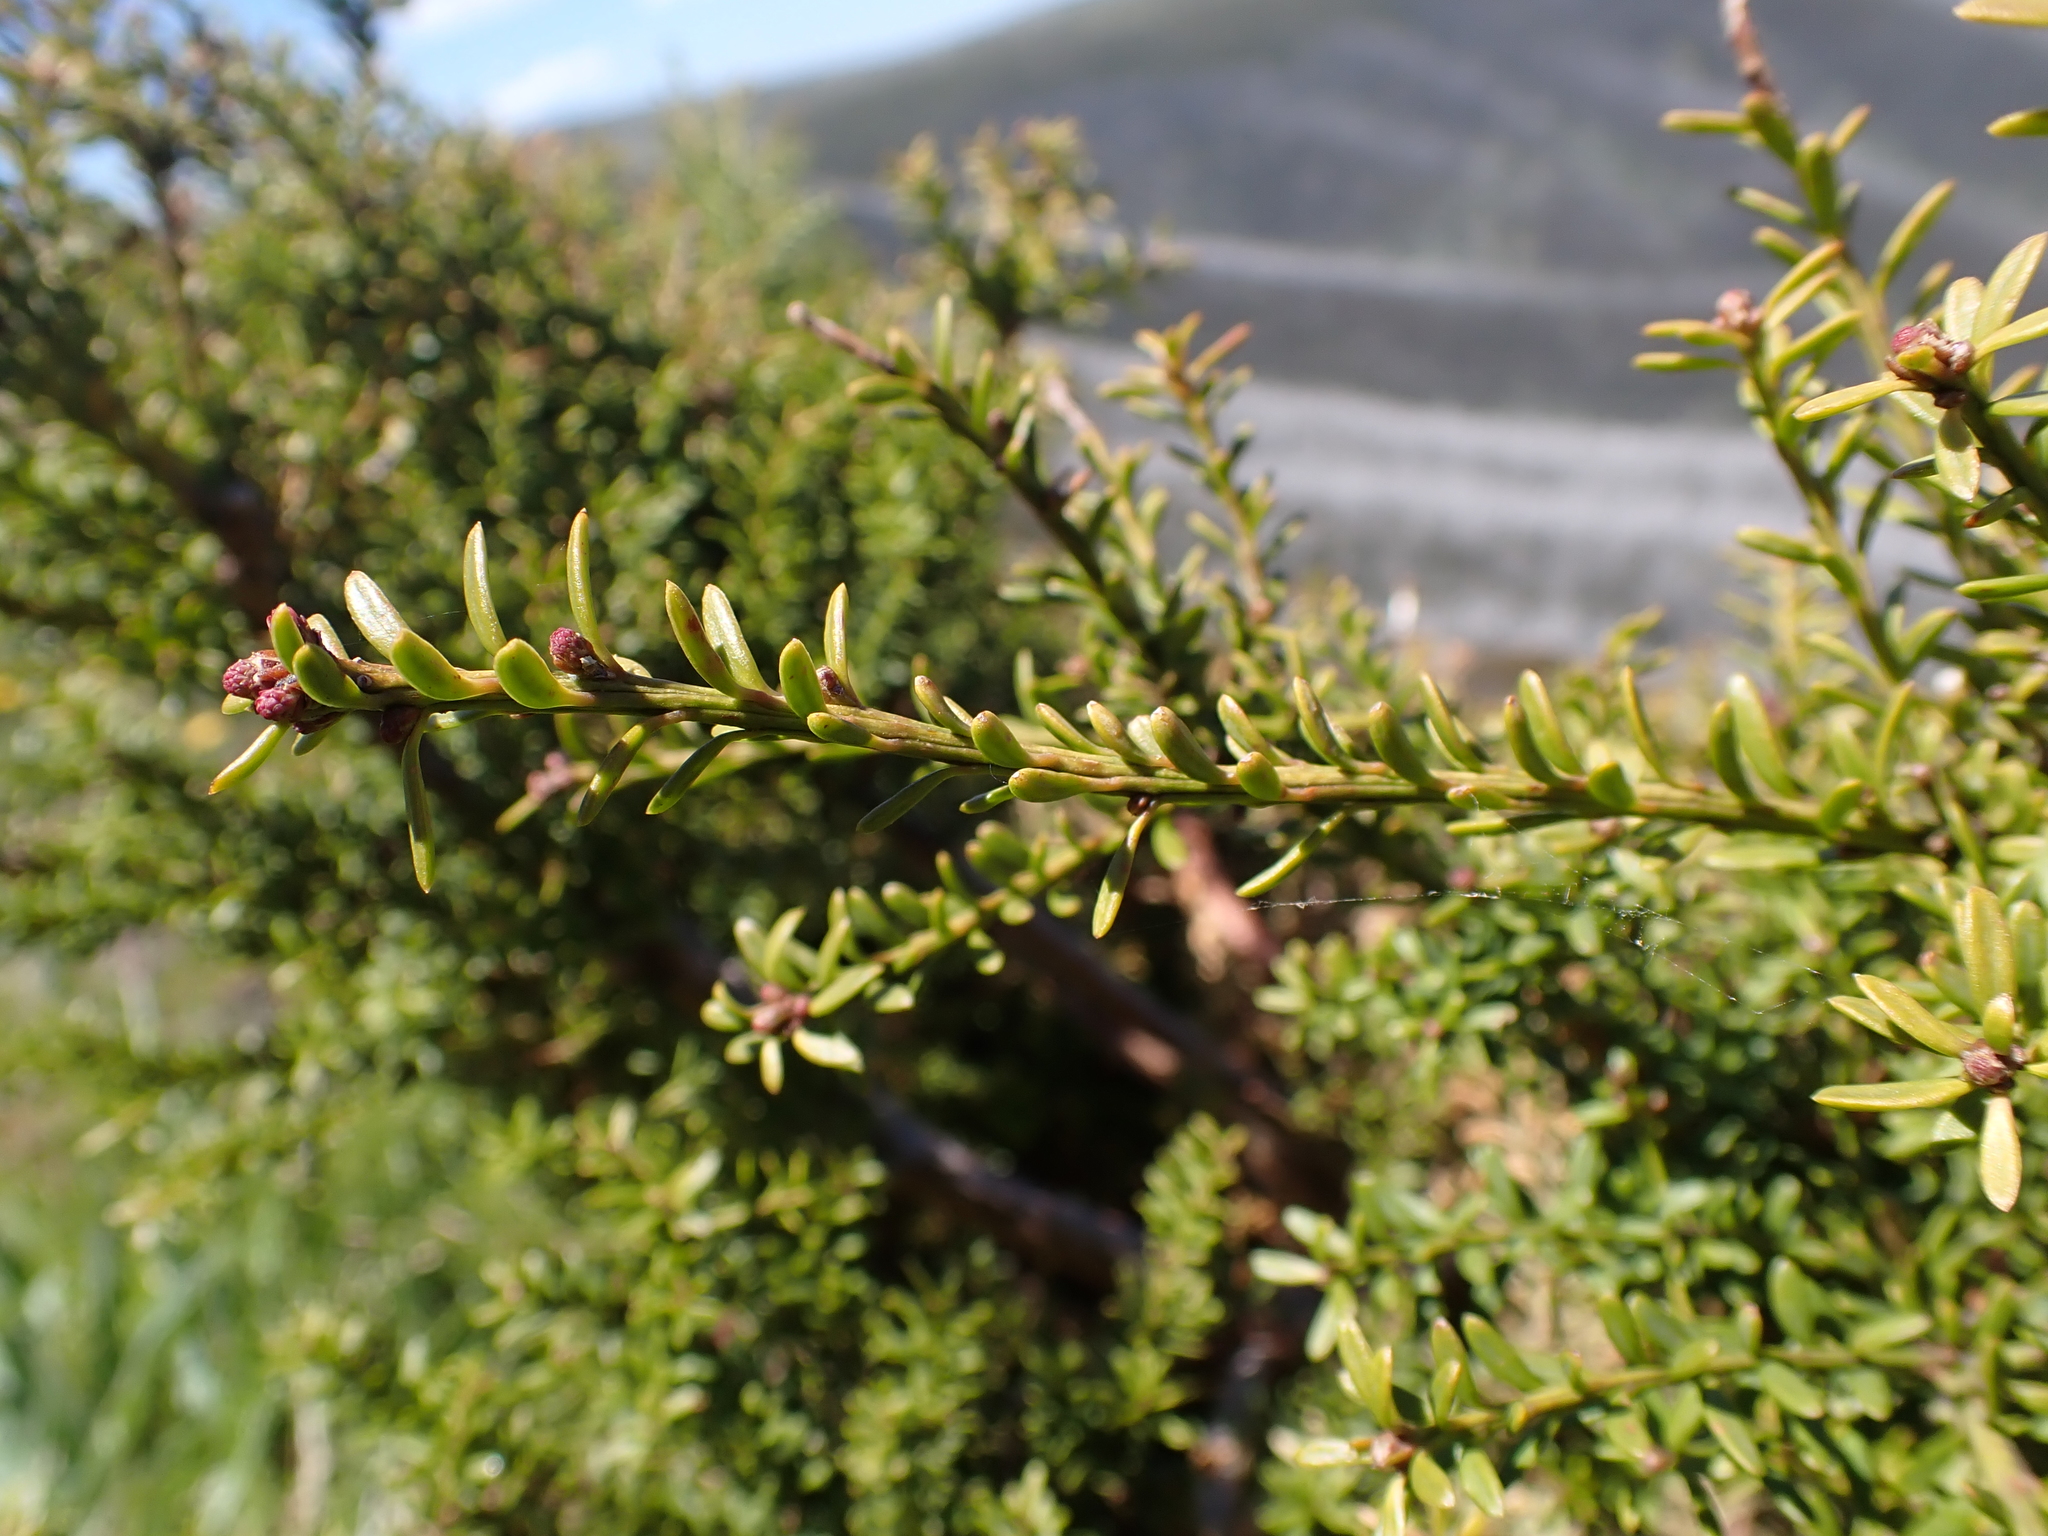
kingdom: Plantae
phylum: Tracheophyta
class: Pinopsida
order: Pinales
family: Podocarpaceae
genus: Podocarpus
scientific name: Podocarpus lawrencei
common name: Mountain plum pine
